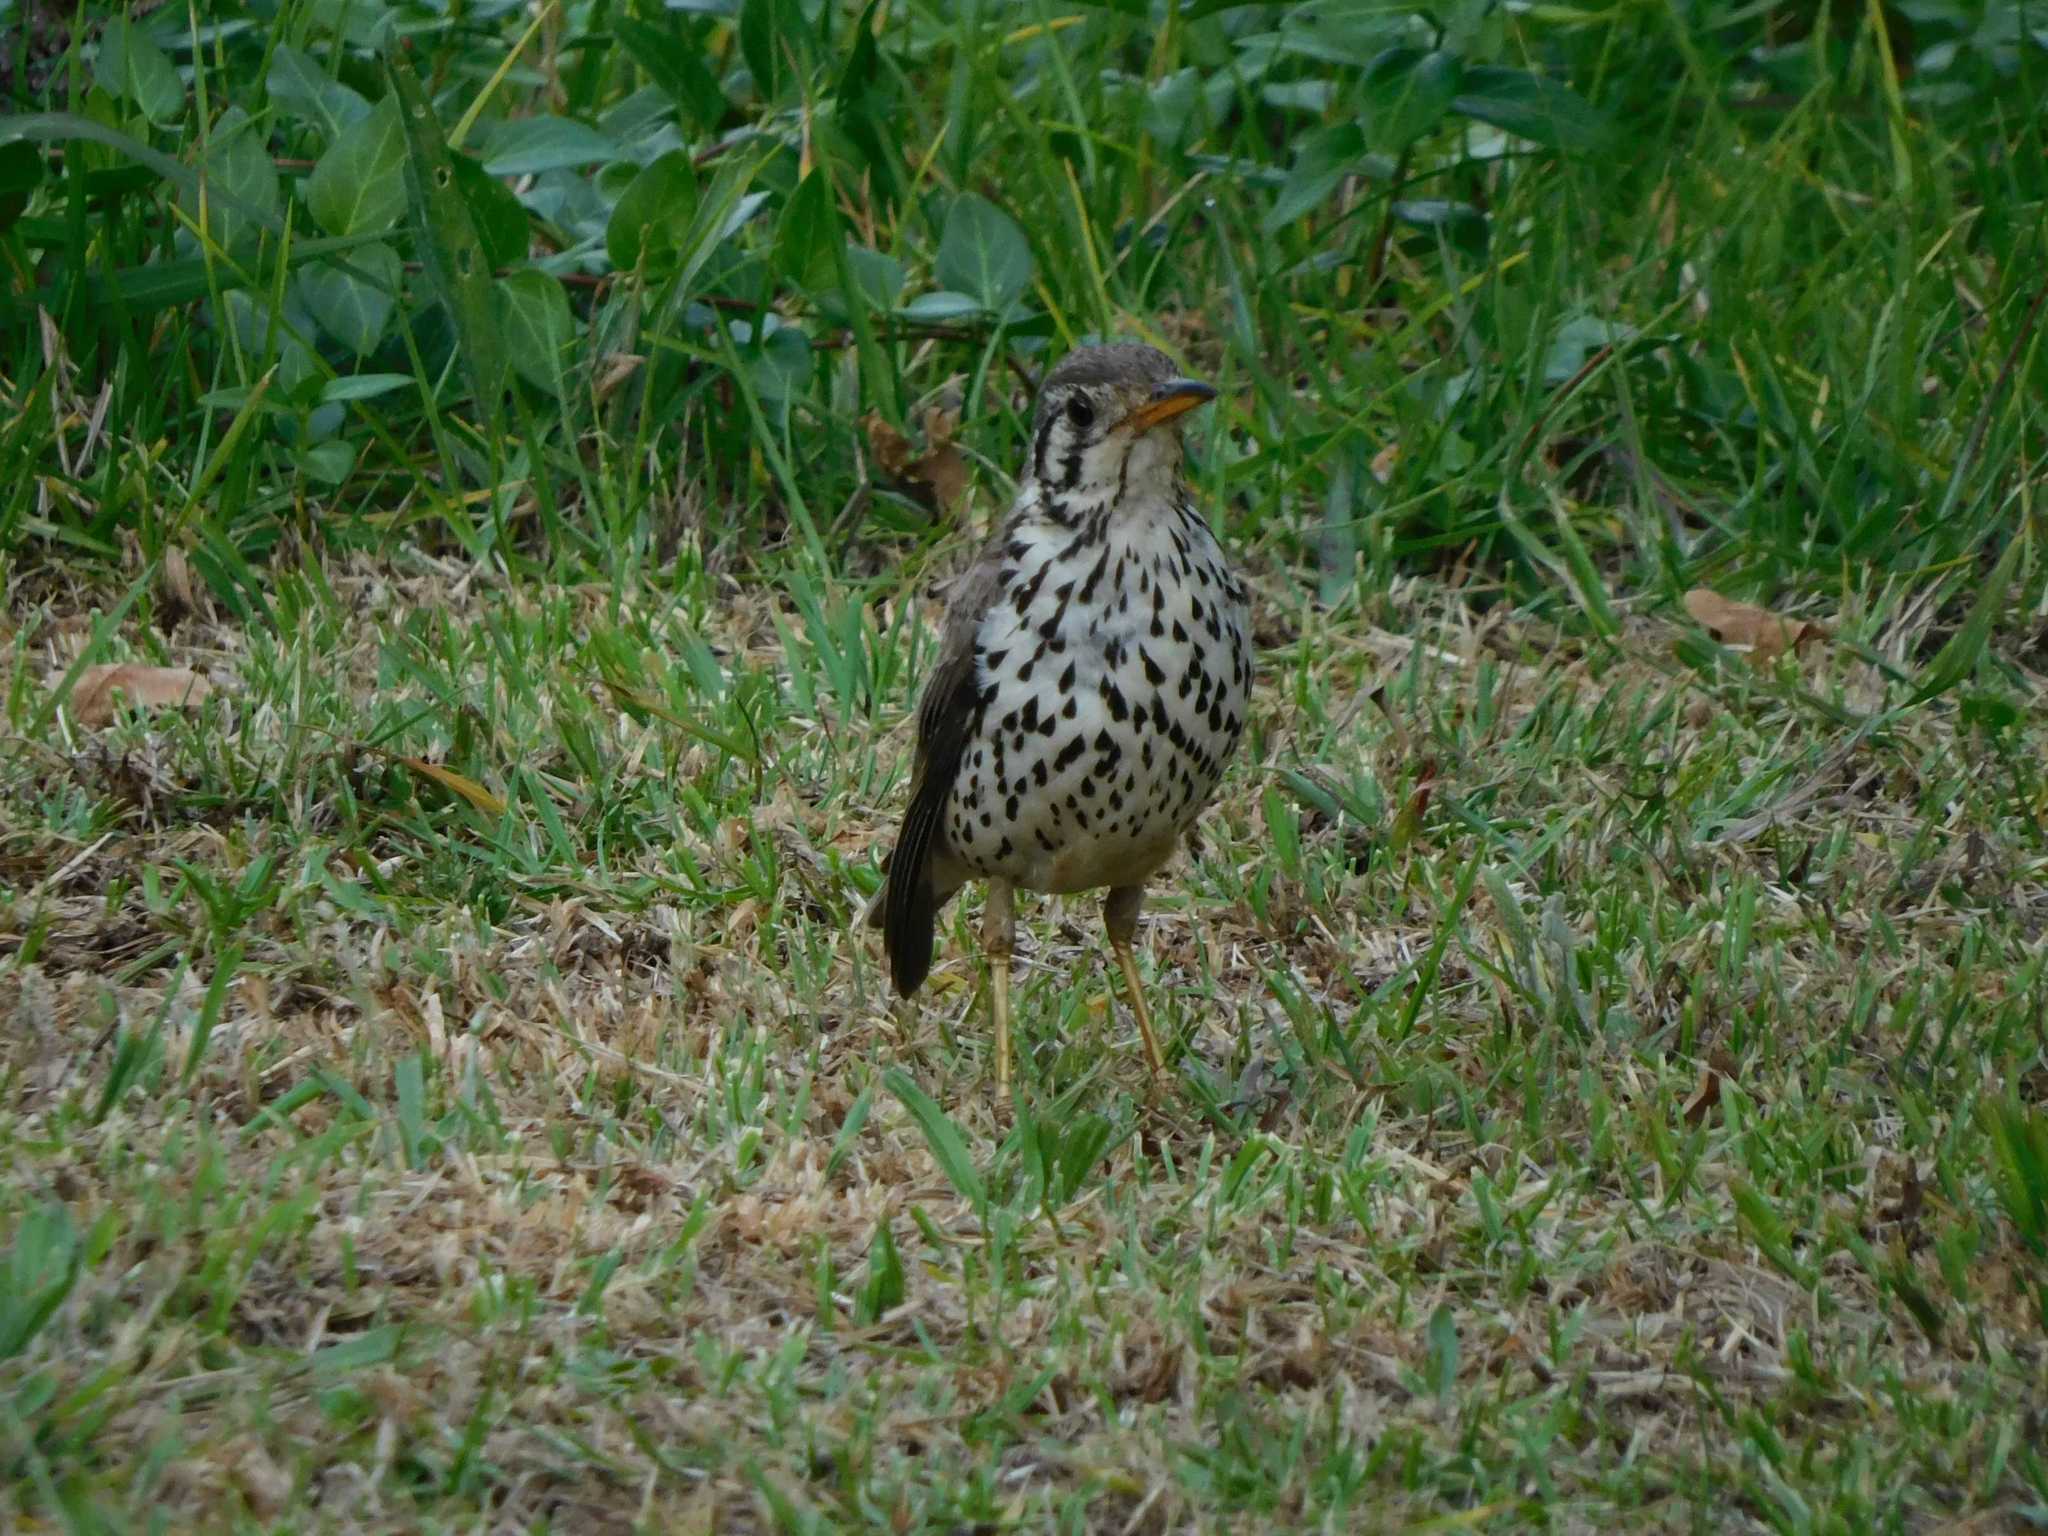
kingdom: Animalia
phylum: Chordata
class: Aves
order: Passeriformes
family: Turdidae
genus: Psophocichla
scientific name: Psophocichla litsitsirupa
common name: Groundscraper thrush
